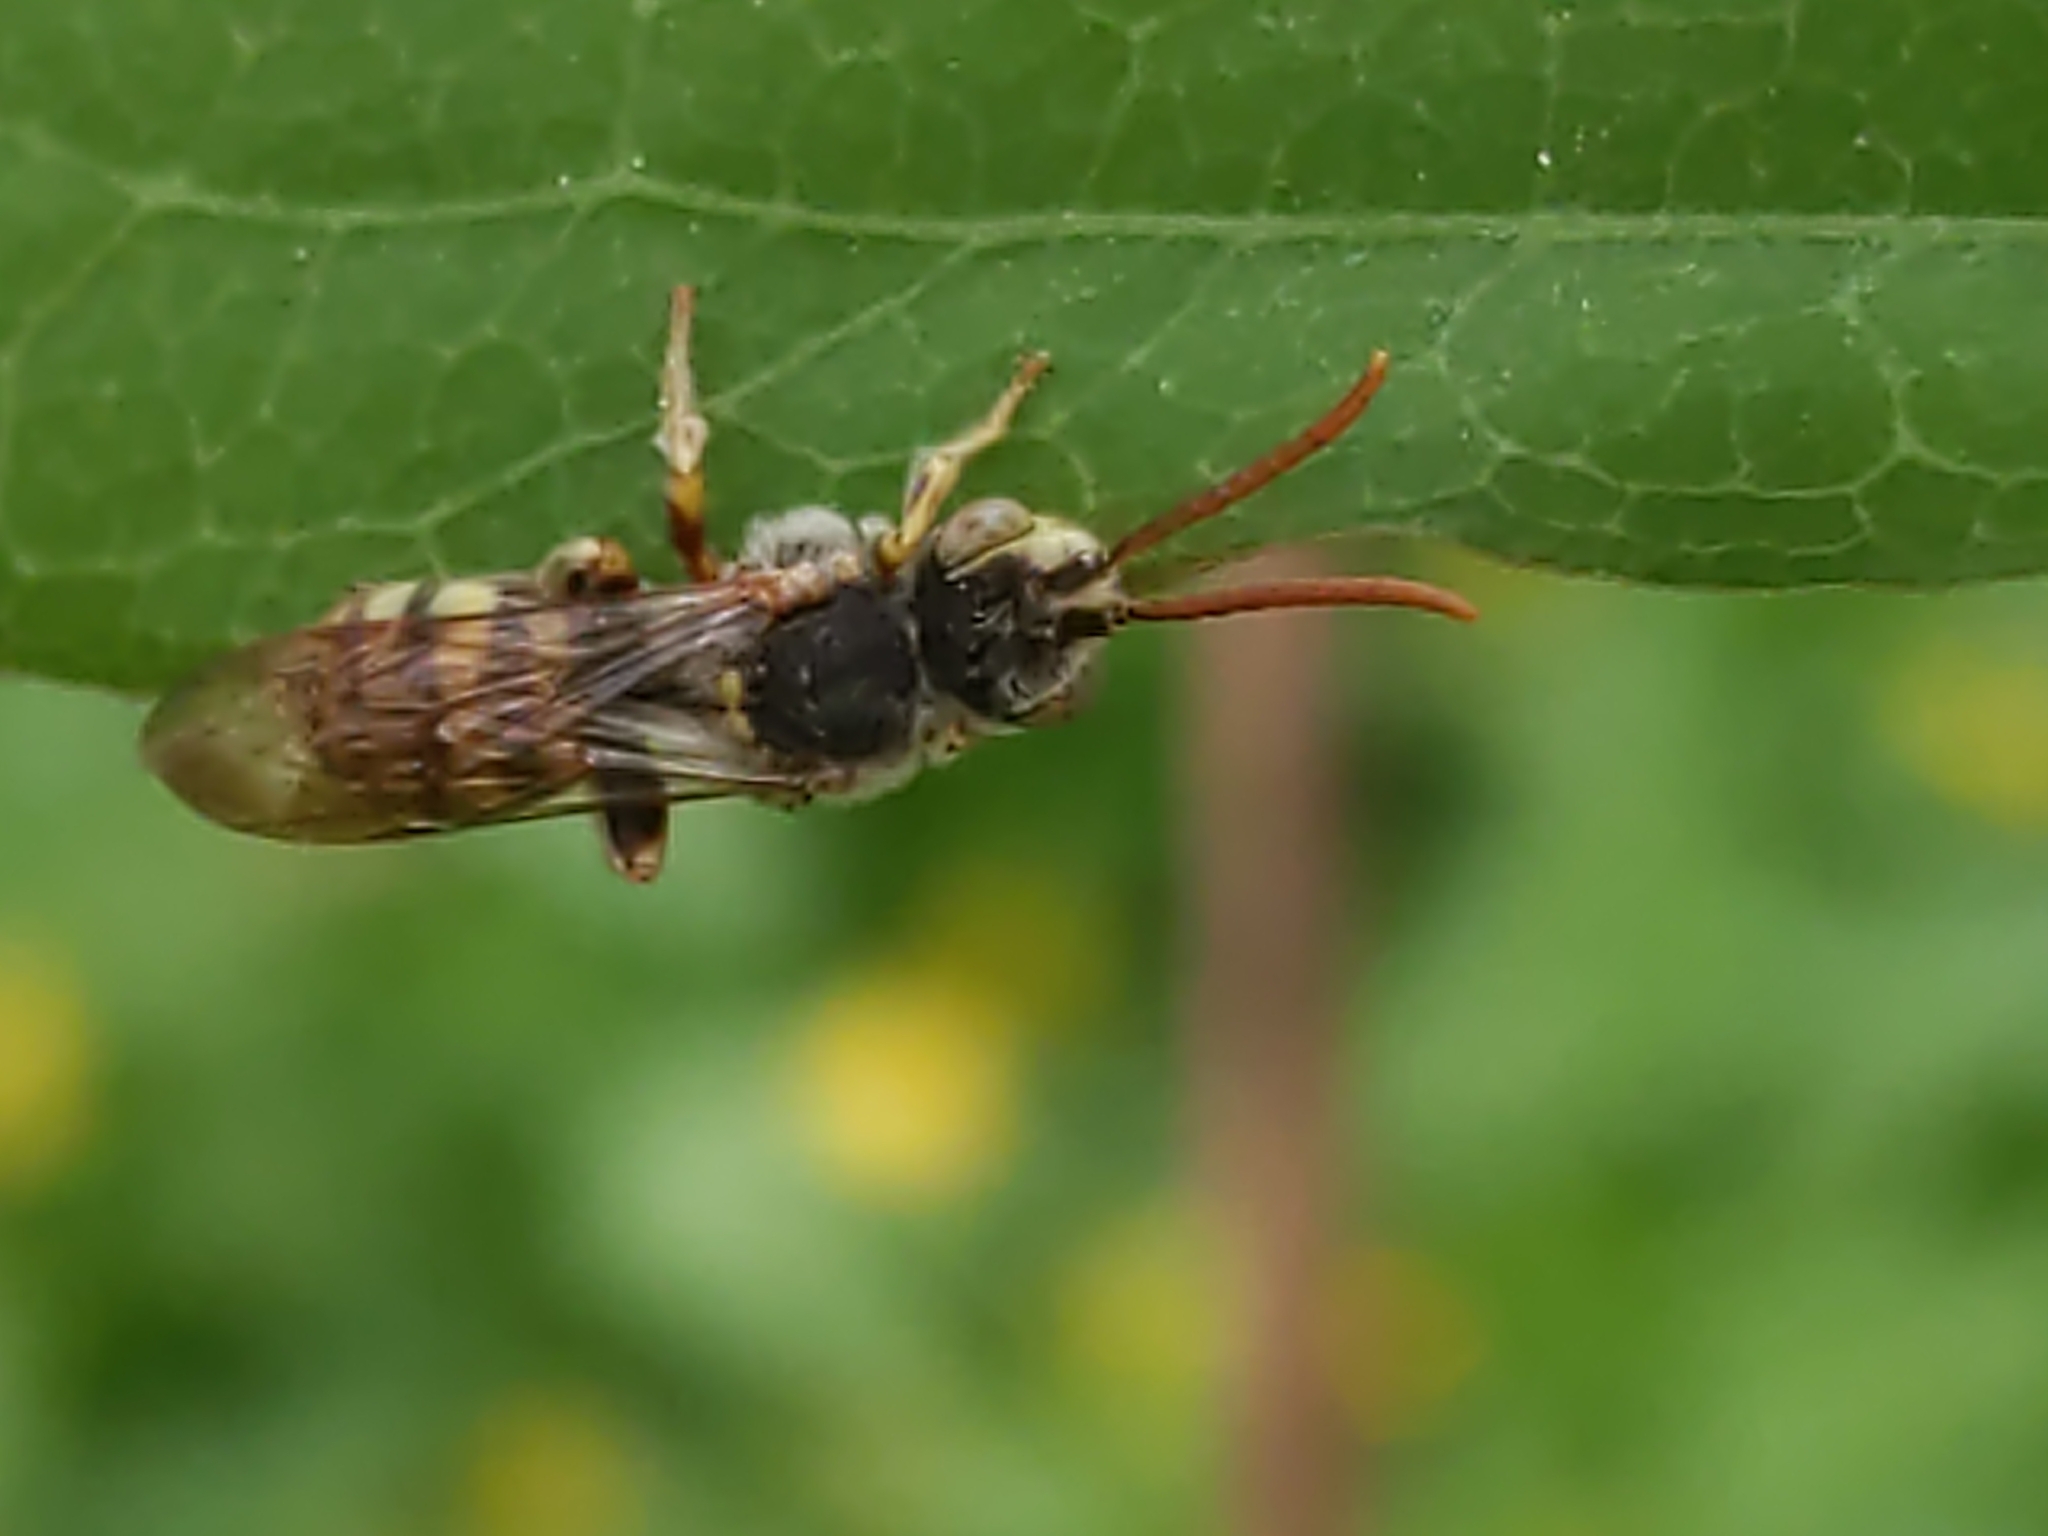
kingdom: Animalia
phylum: Arthropoda
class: Insecta
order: Hymenoptera
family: Apidae
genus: Nomada
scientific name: Nomada
